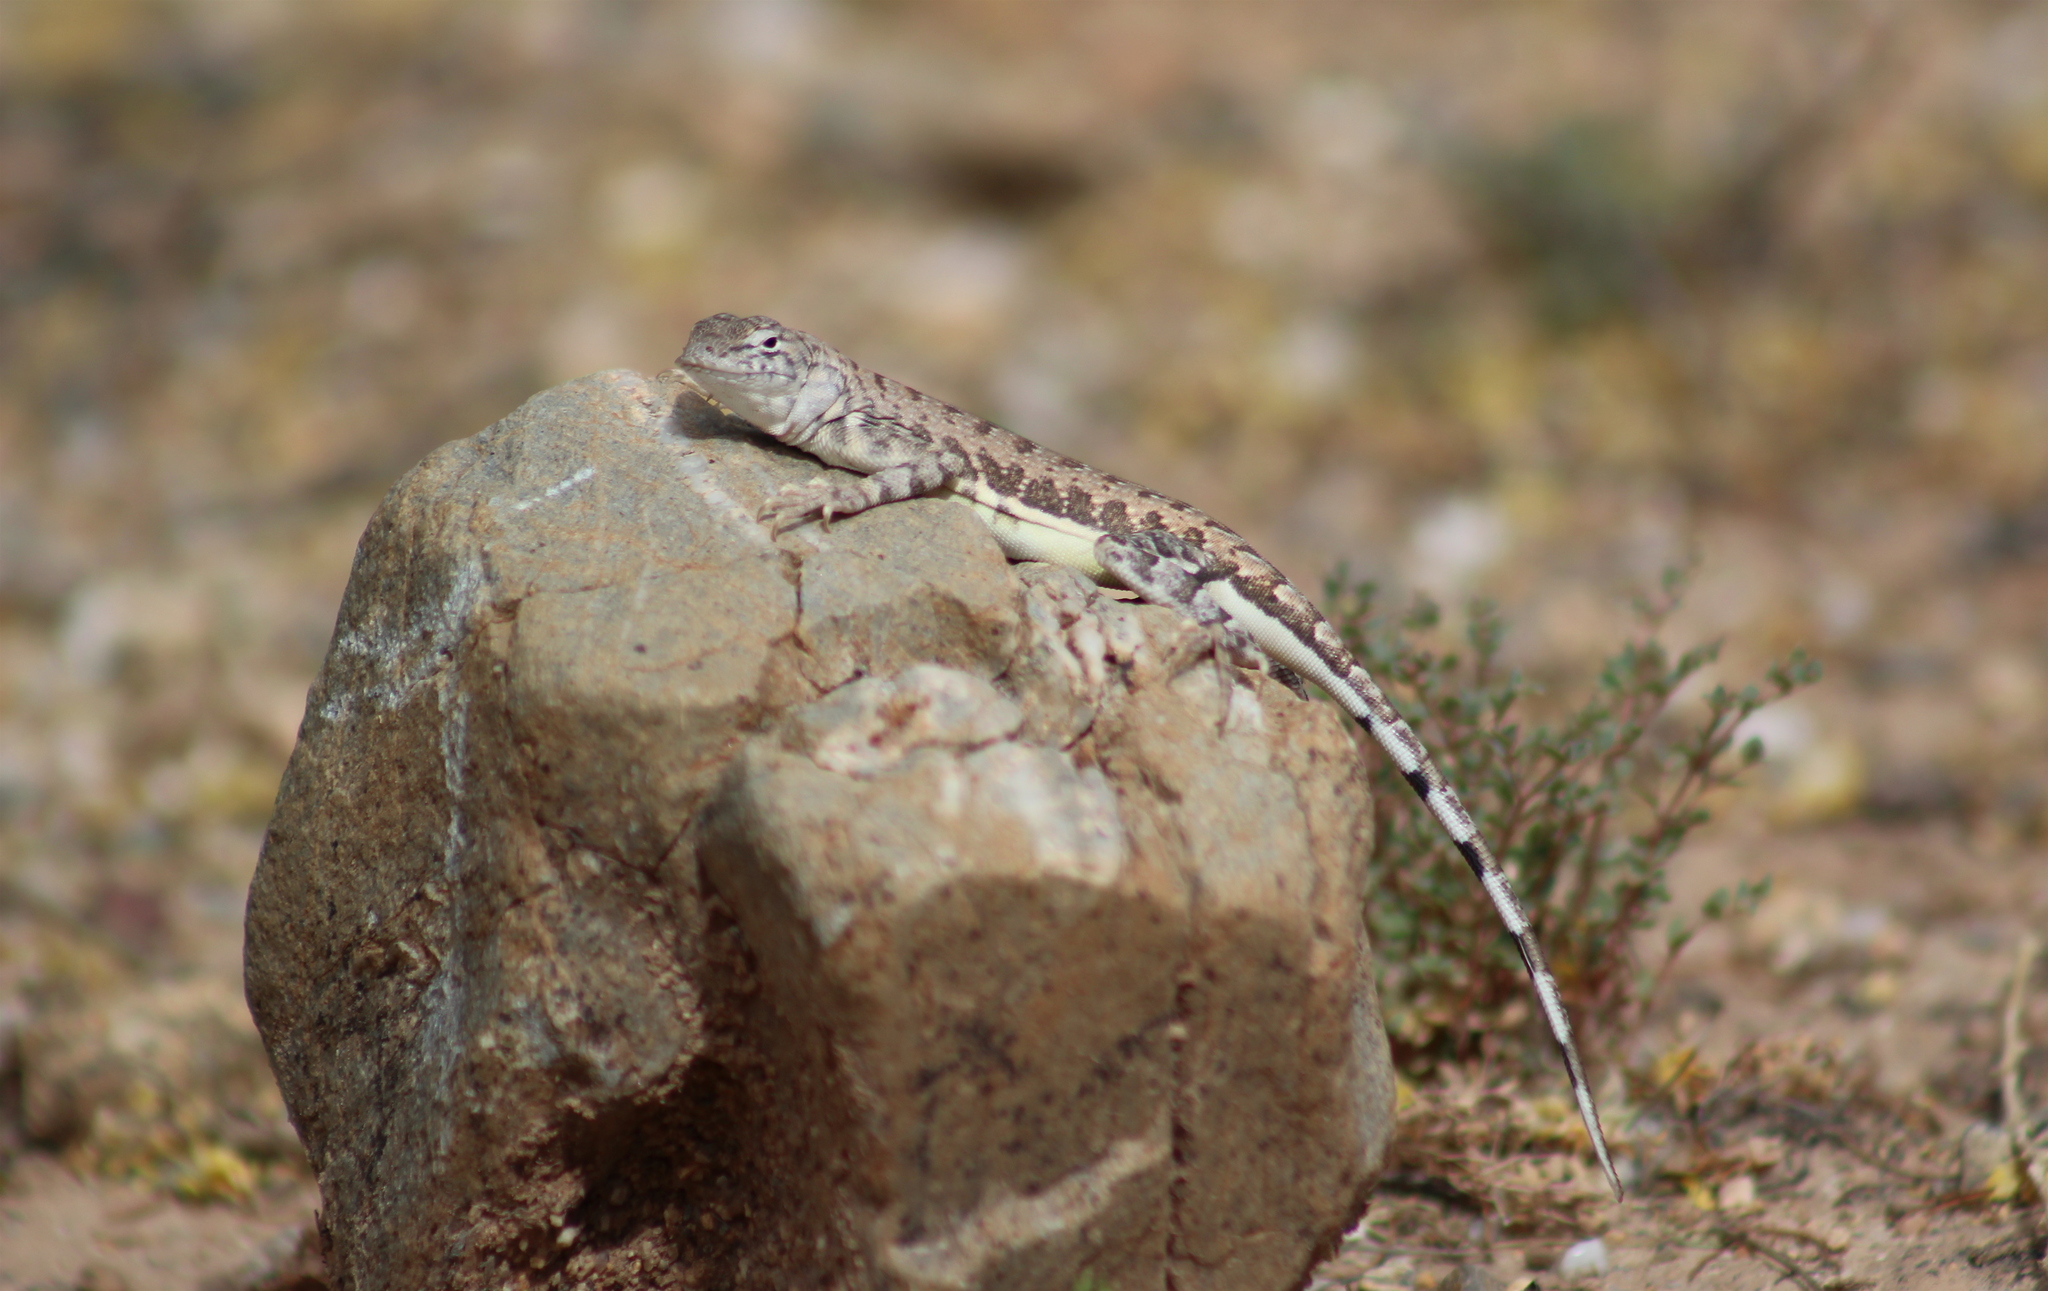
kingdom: Animalia
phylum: Chordata
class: Squamata
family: Phrynosomatidae
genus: Callisaurus
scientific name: Callisaurus draconoides
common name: Zebra-tailed lizard
